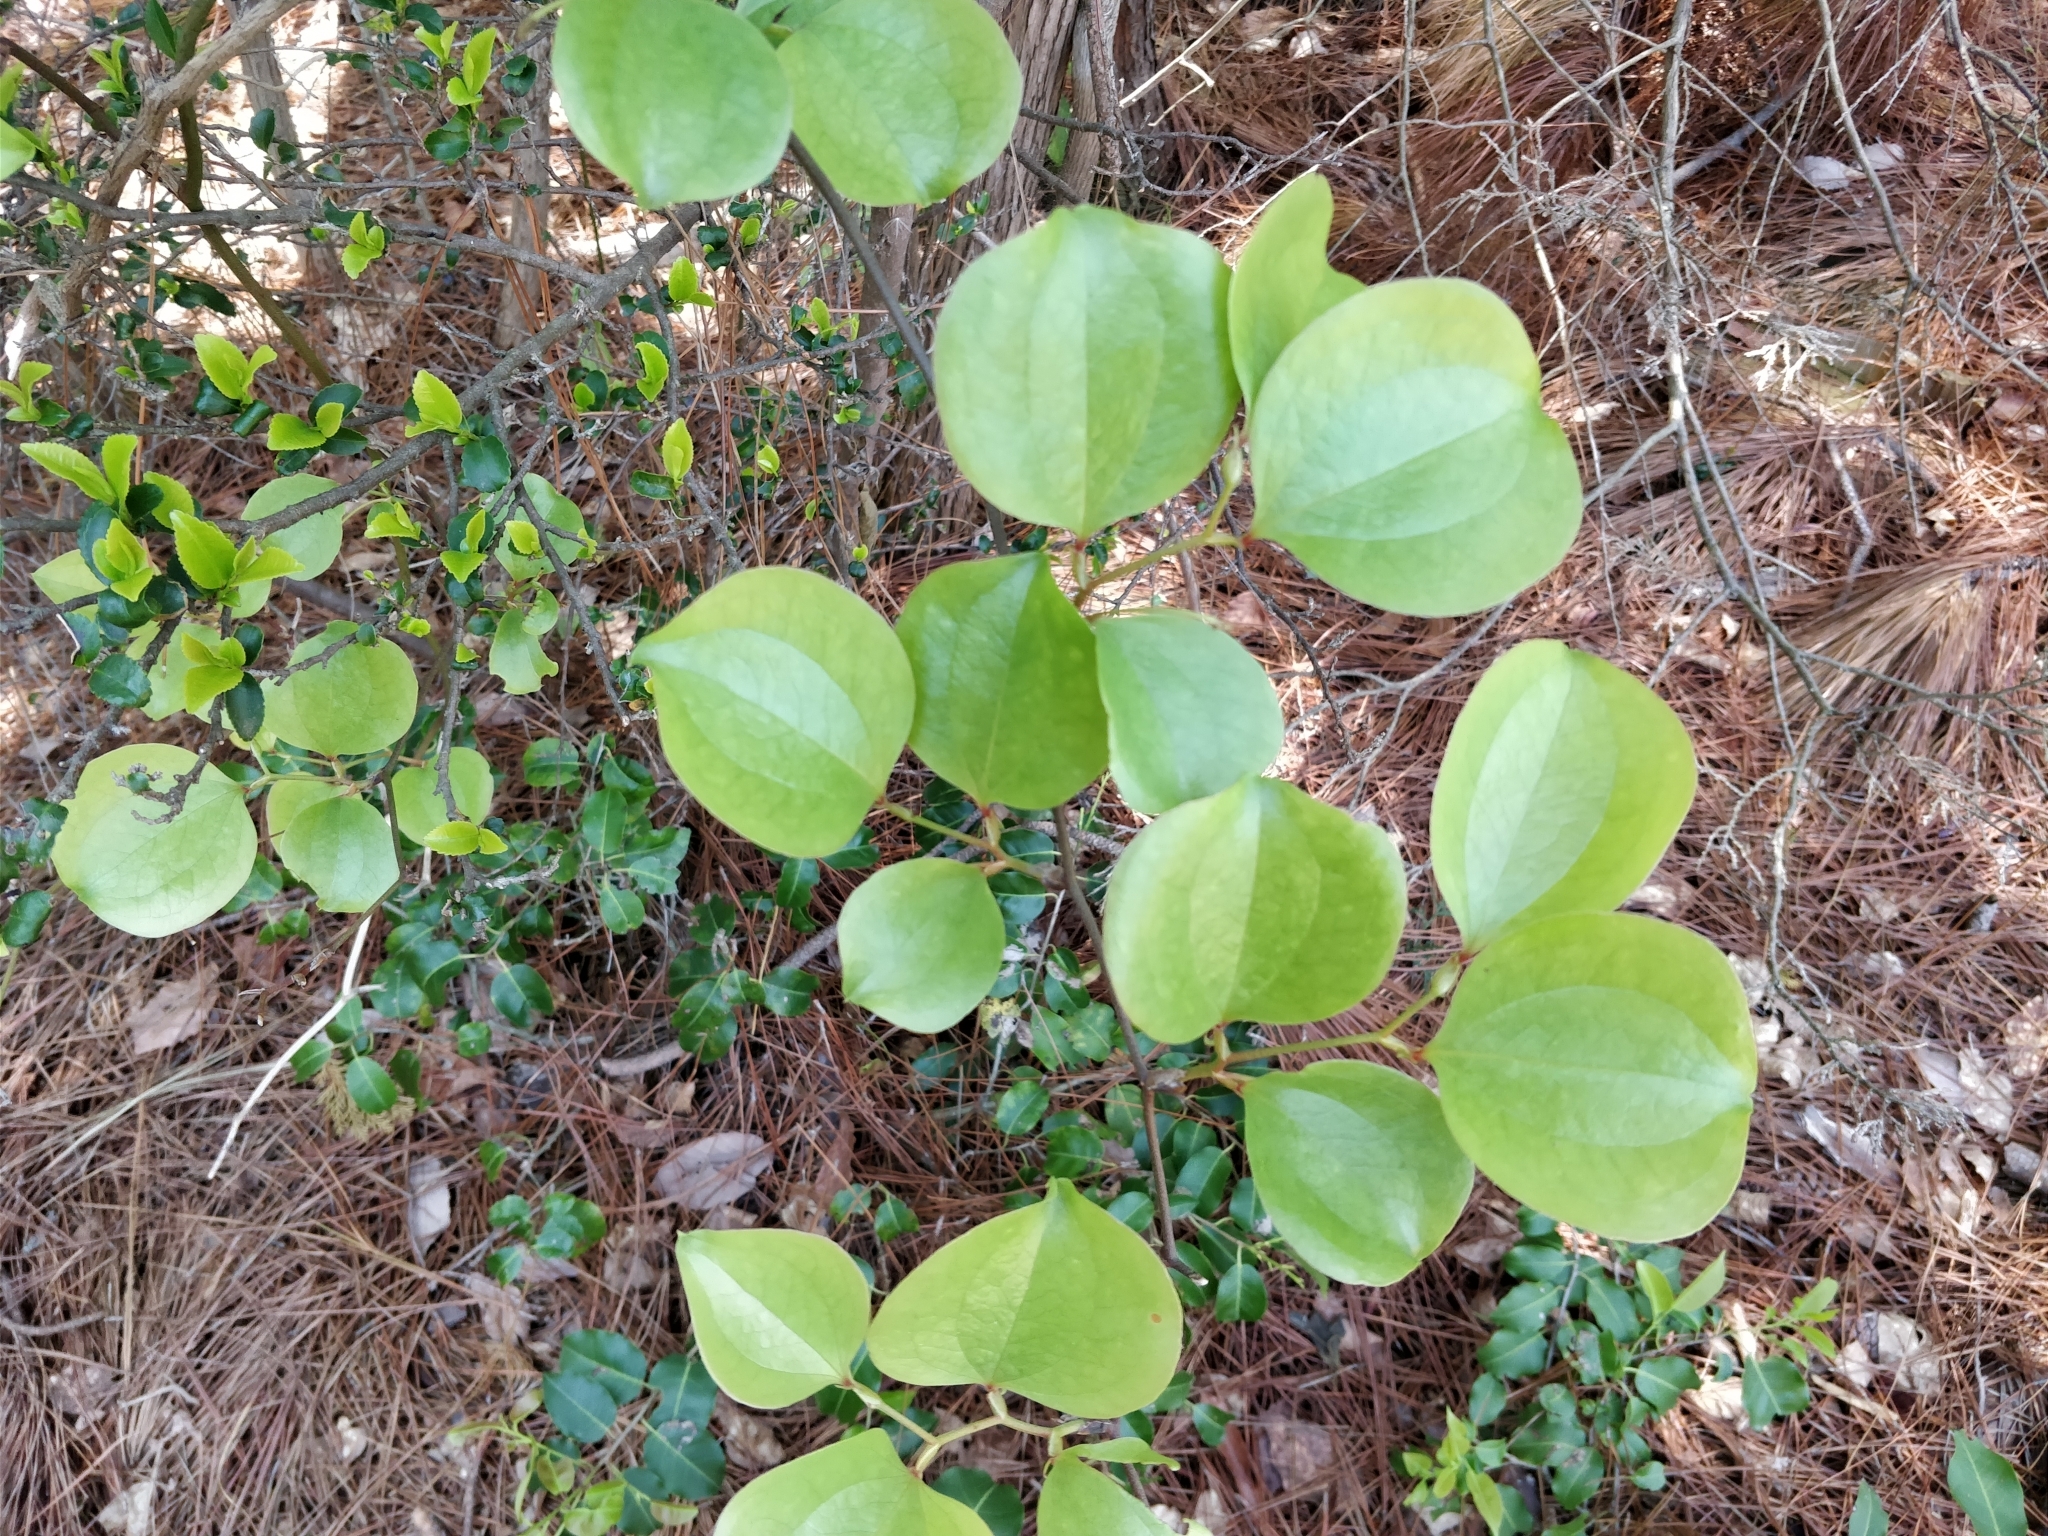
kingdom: Plantae
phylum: Tracheophyta
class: Liliopsida
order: Liliales
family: Smilacaceae
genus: Smilax
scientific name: Smilax china
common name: Chinaroot
